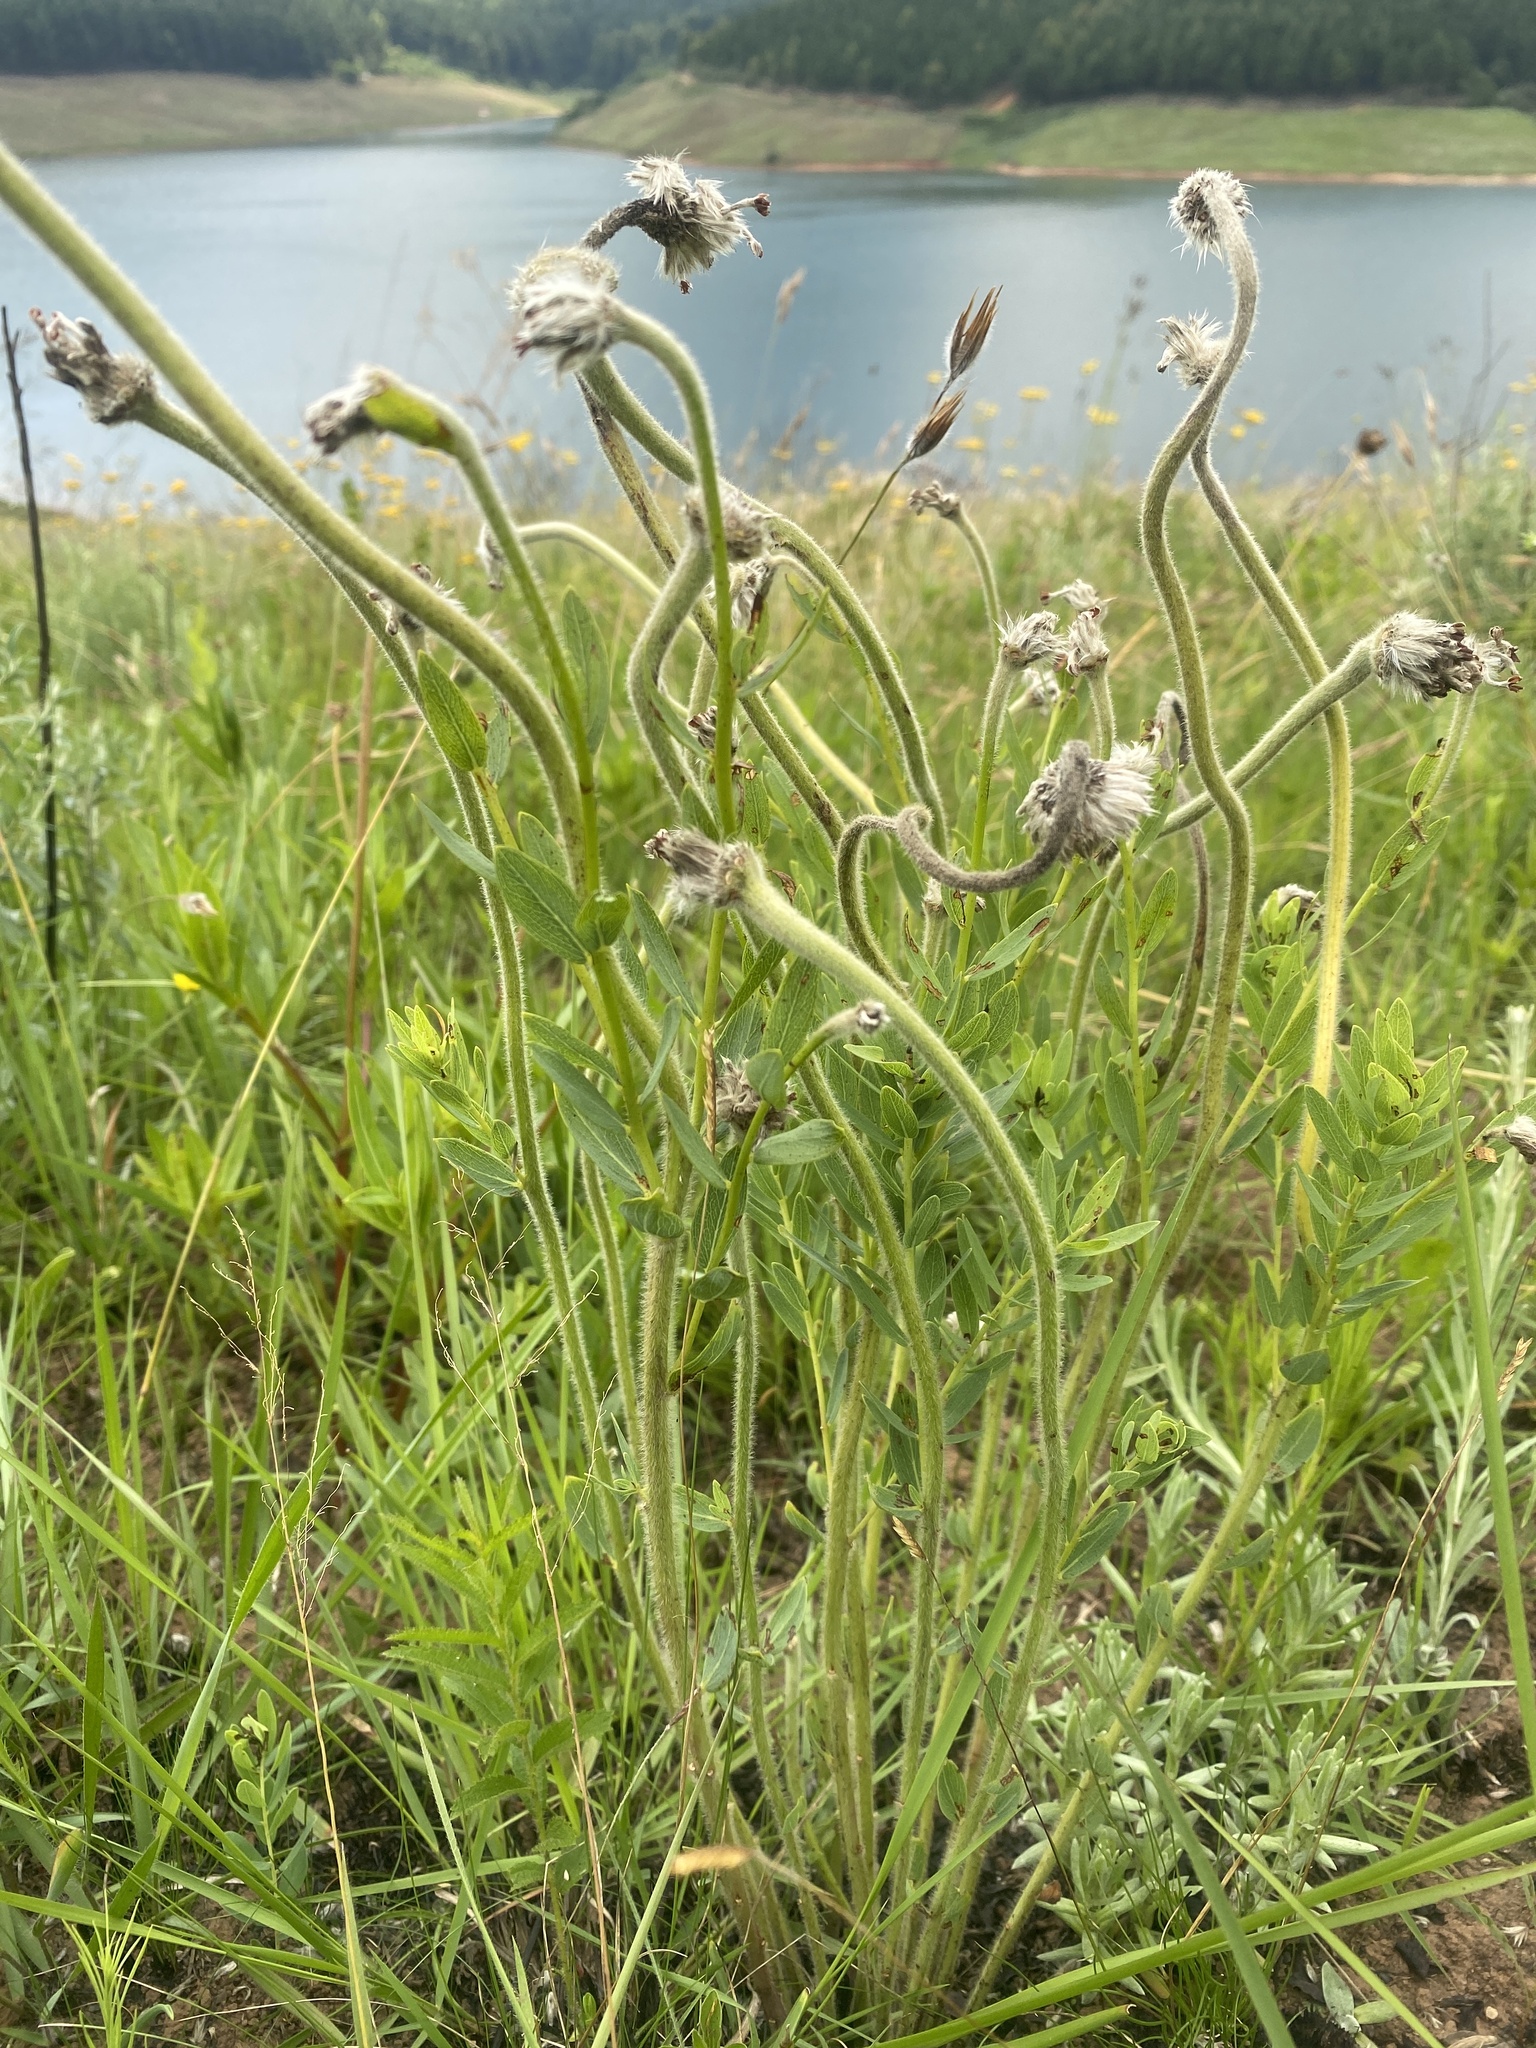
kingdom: Plantae
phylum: Tracheophyta
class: Magnoliopsida
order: Malvales
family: Thymelaeaceae
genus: Gnidia
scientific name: Gnidia kraussiana
